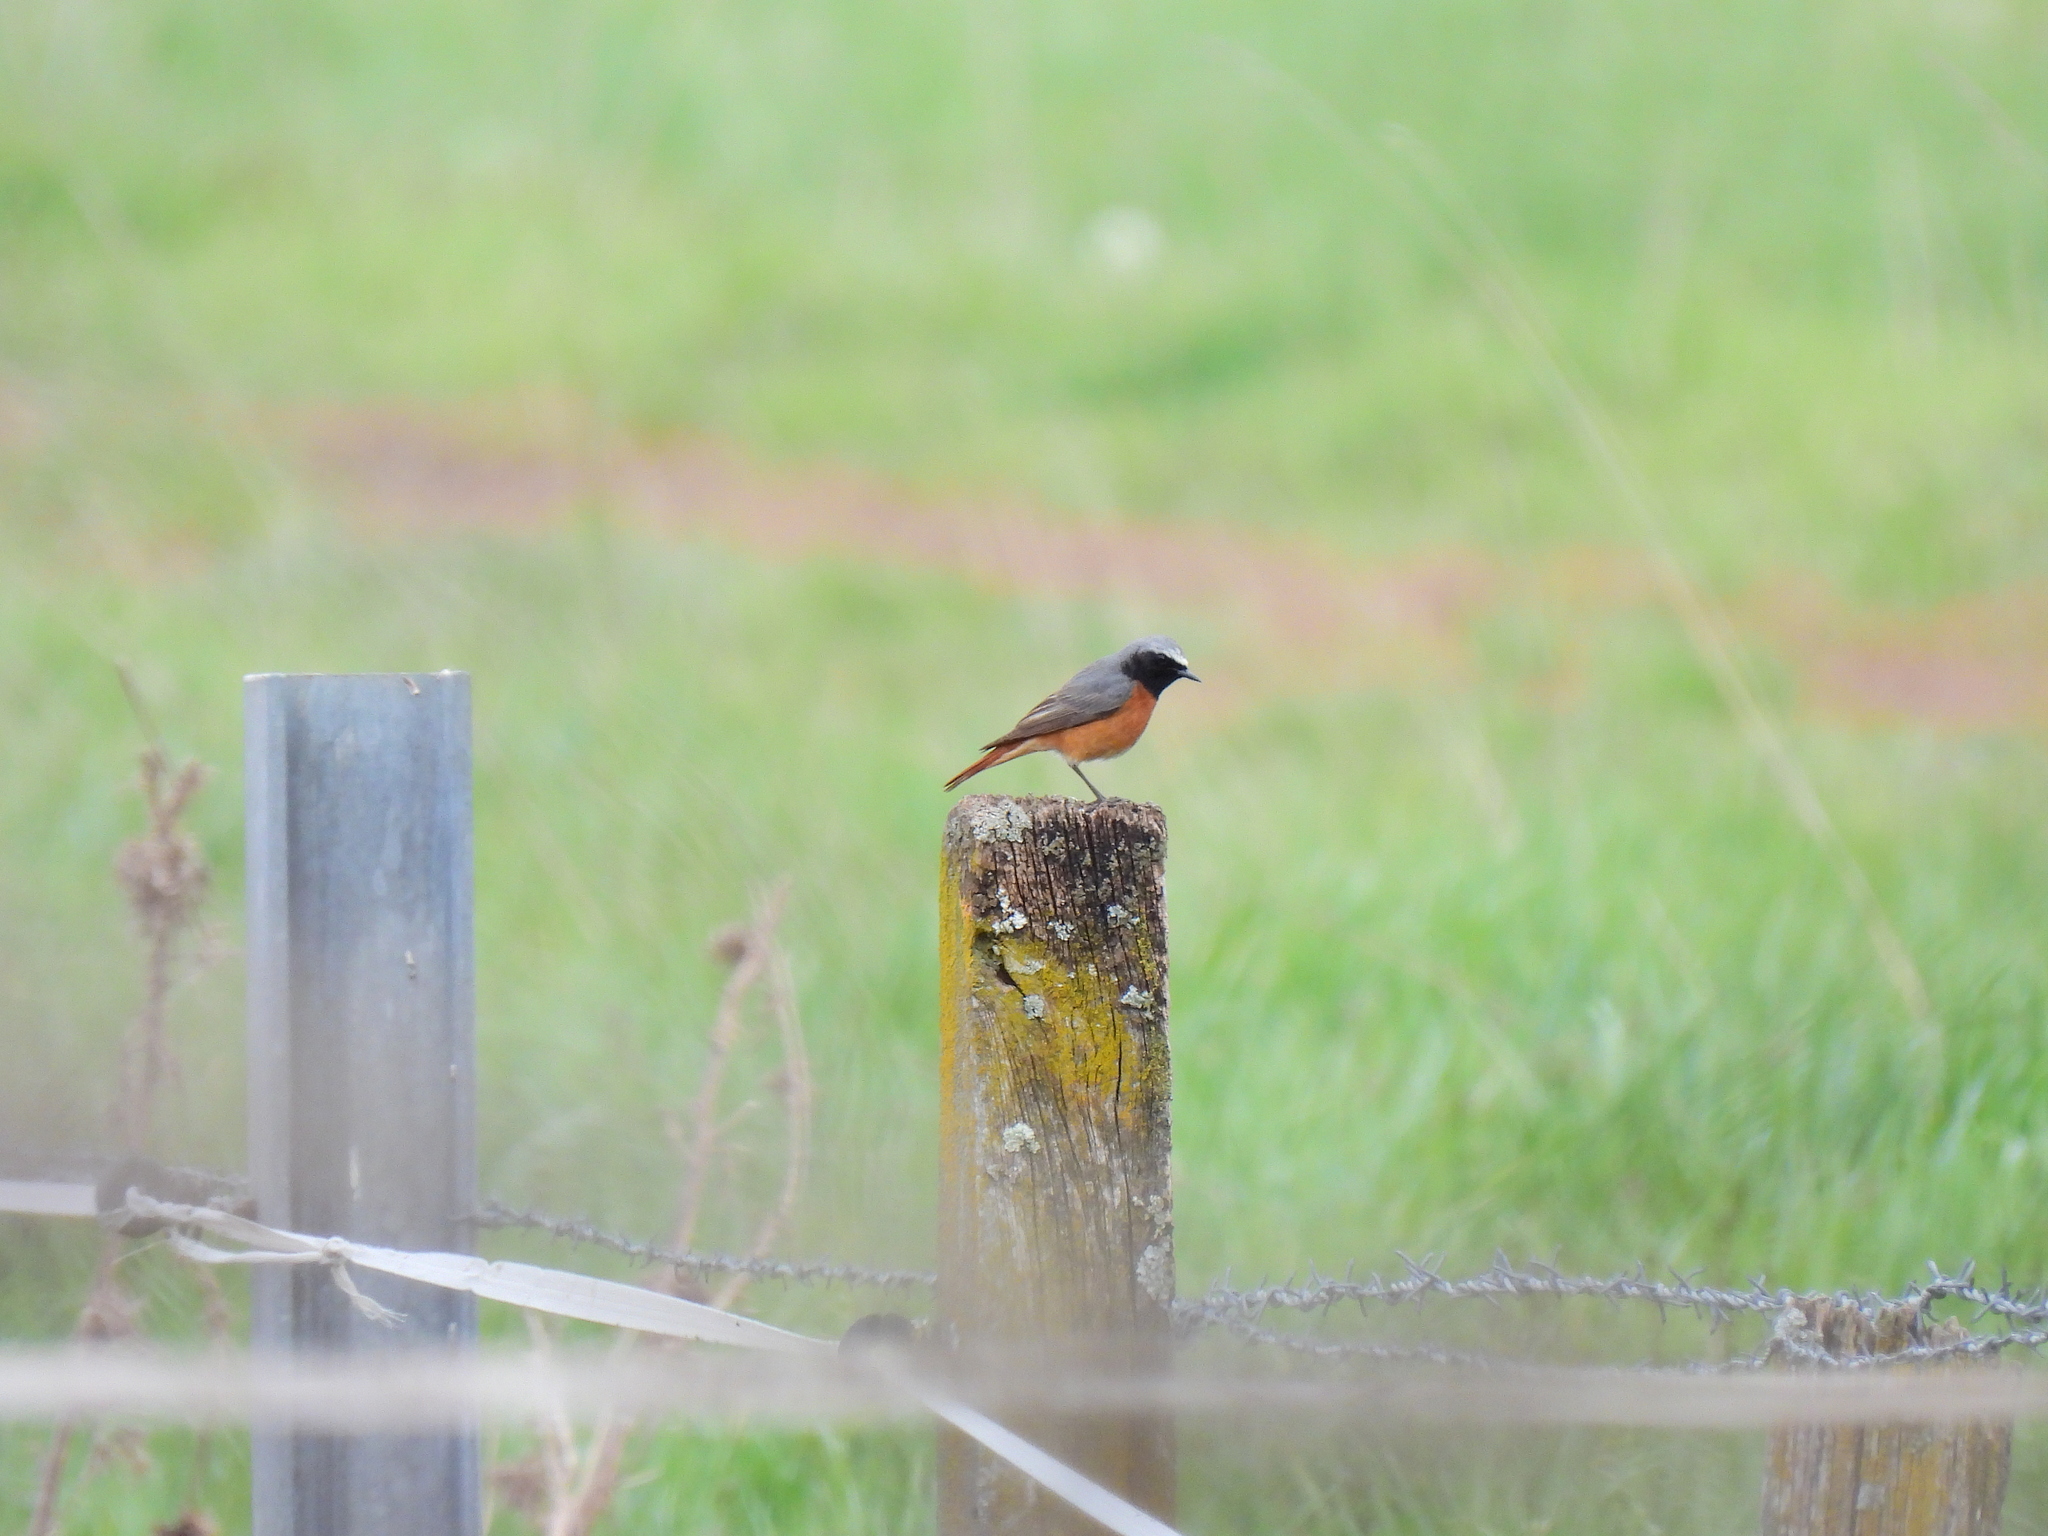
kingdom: Animalia
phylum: Chordata
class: Aves
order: Passeriformes
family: Muscicapidae
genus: Phoenicurus
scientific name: Phoenicurus phoenicurus
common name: Common redstart
